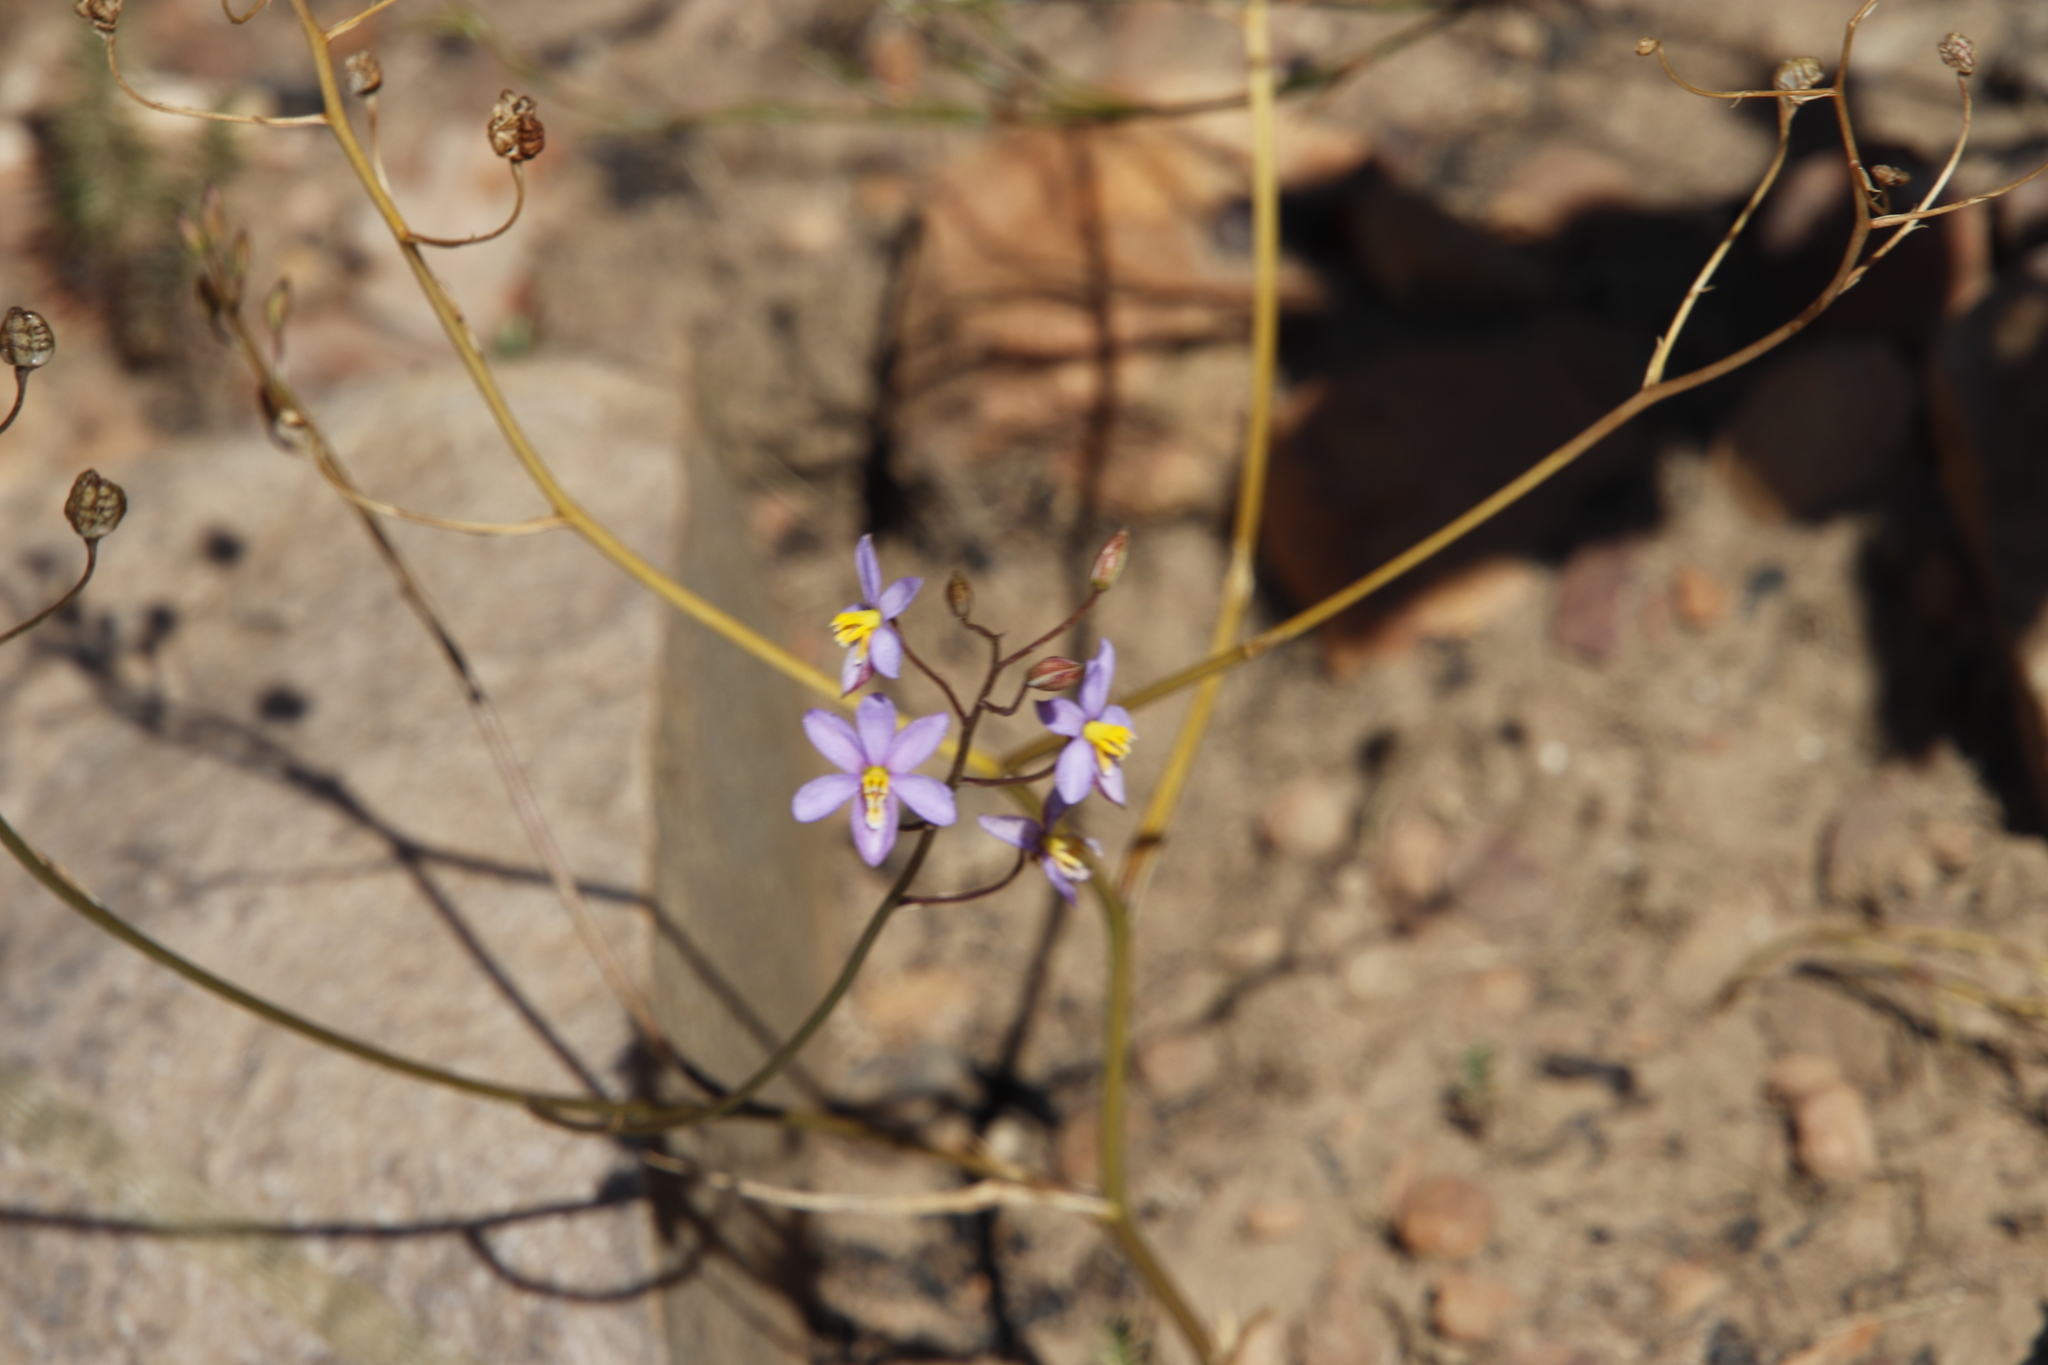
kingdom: Plantae
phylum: Tracheophyta
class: Liliopsida
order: Asparagales
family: Tecophilaeaceae
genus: Cyanella
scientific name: Cyanella hyacinthoides
